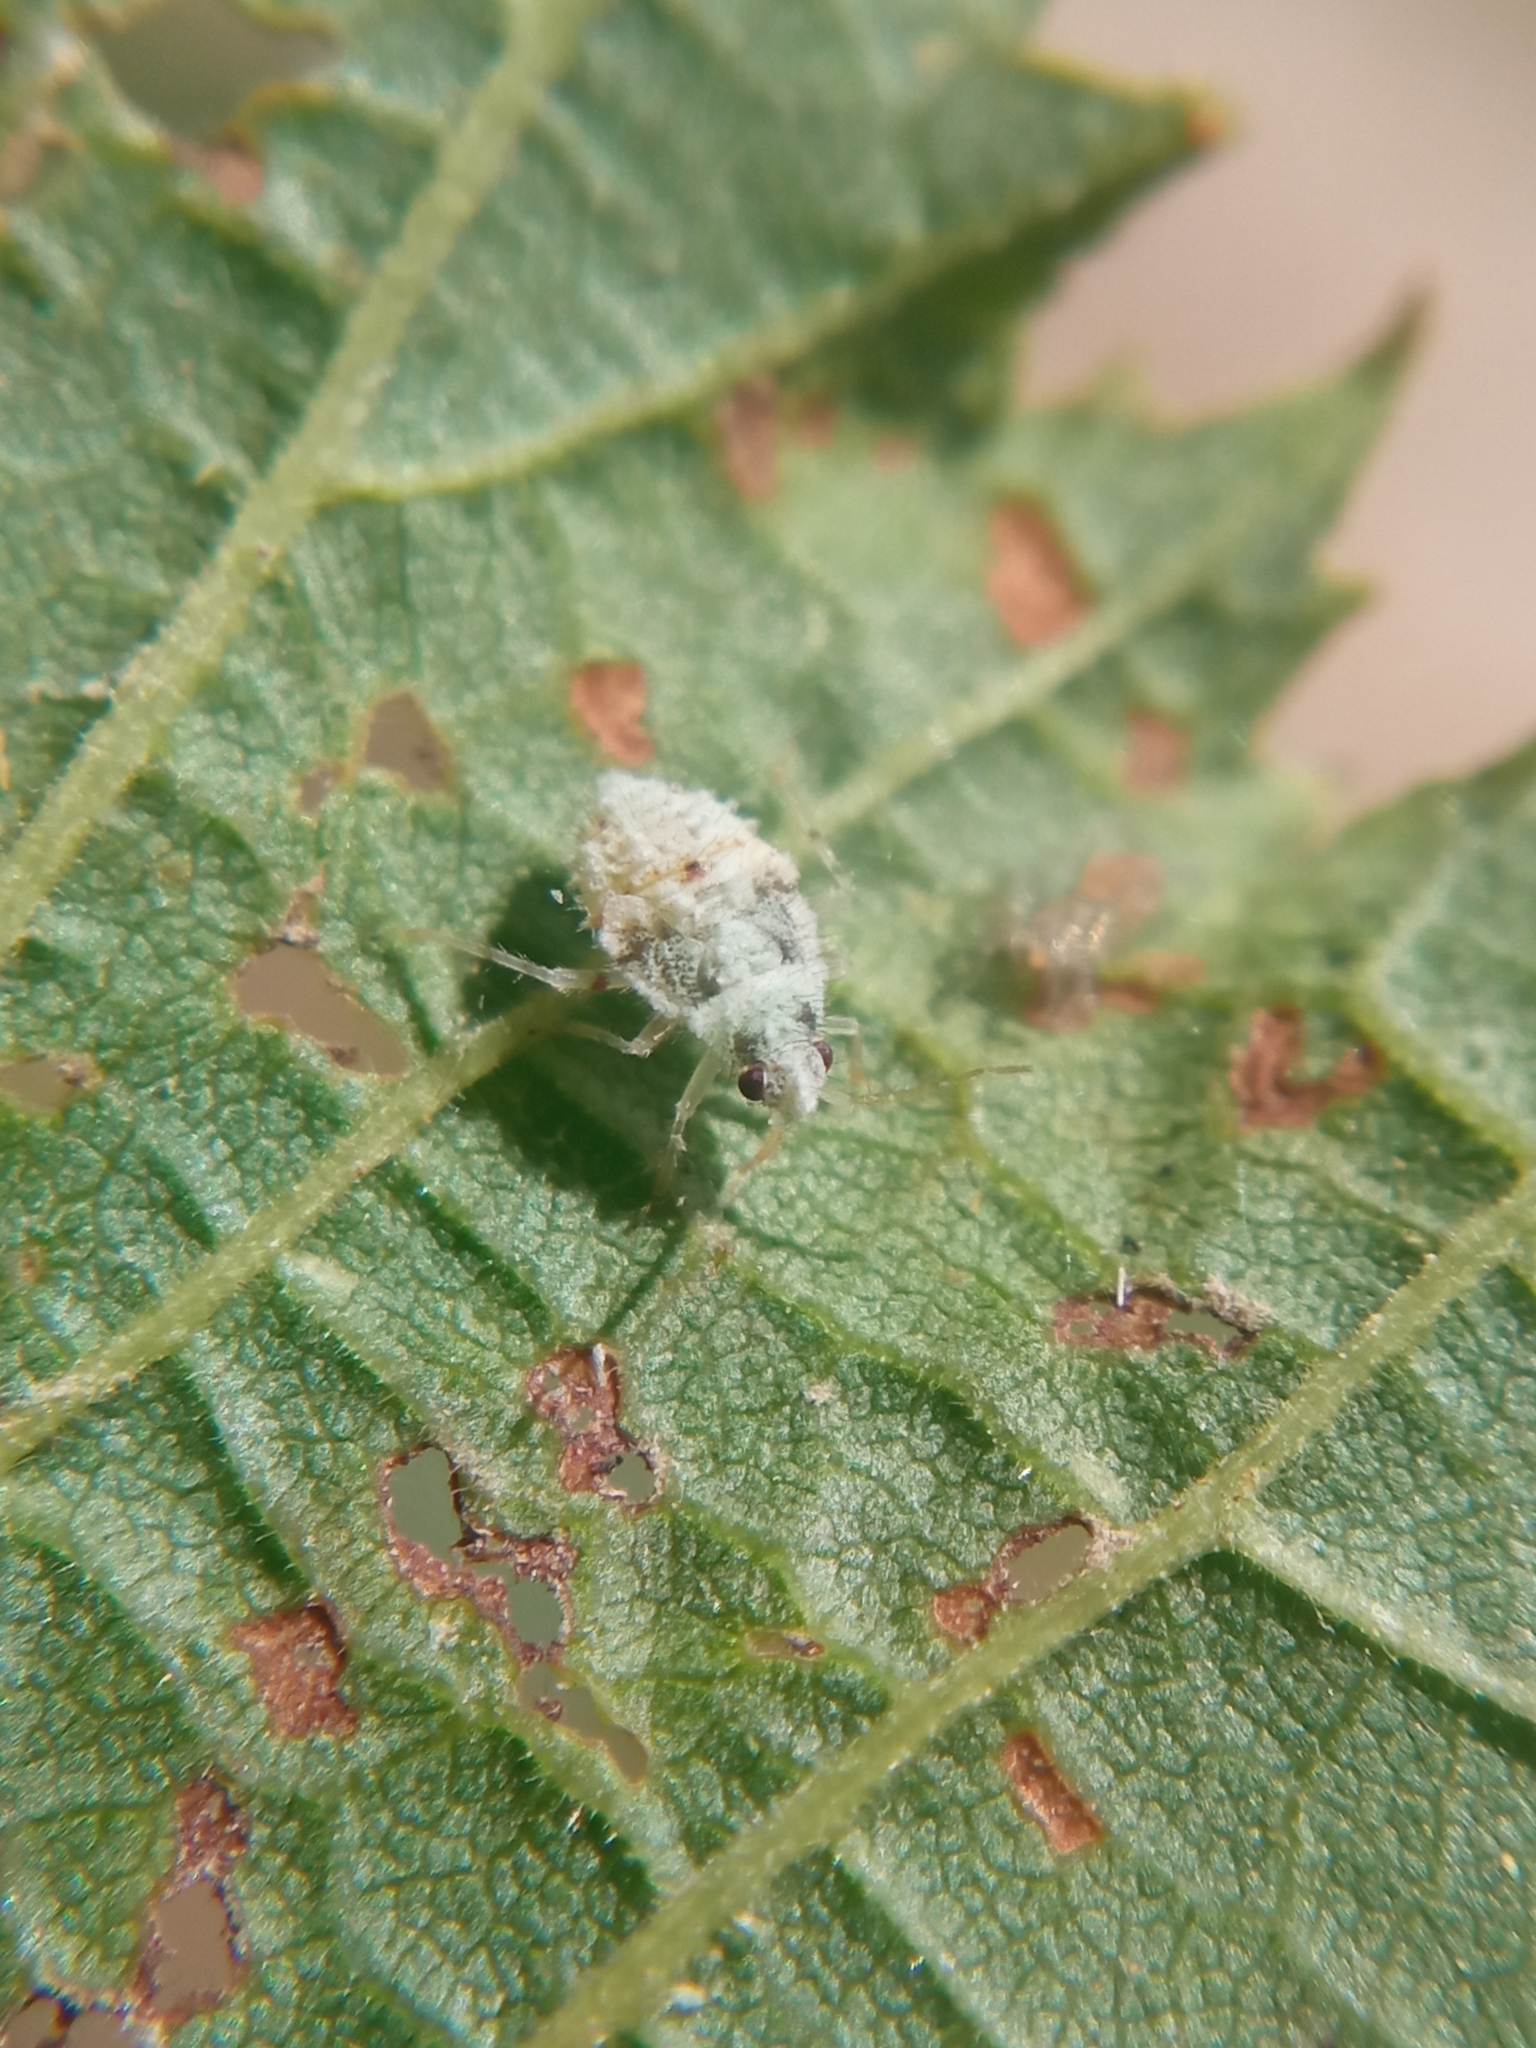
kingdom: Animalia
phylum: Arthropoda
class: Insecta
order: Hemiptera
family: Miridae
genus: Deraeocoris
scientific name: Deraeocoris lutescens
